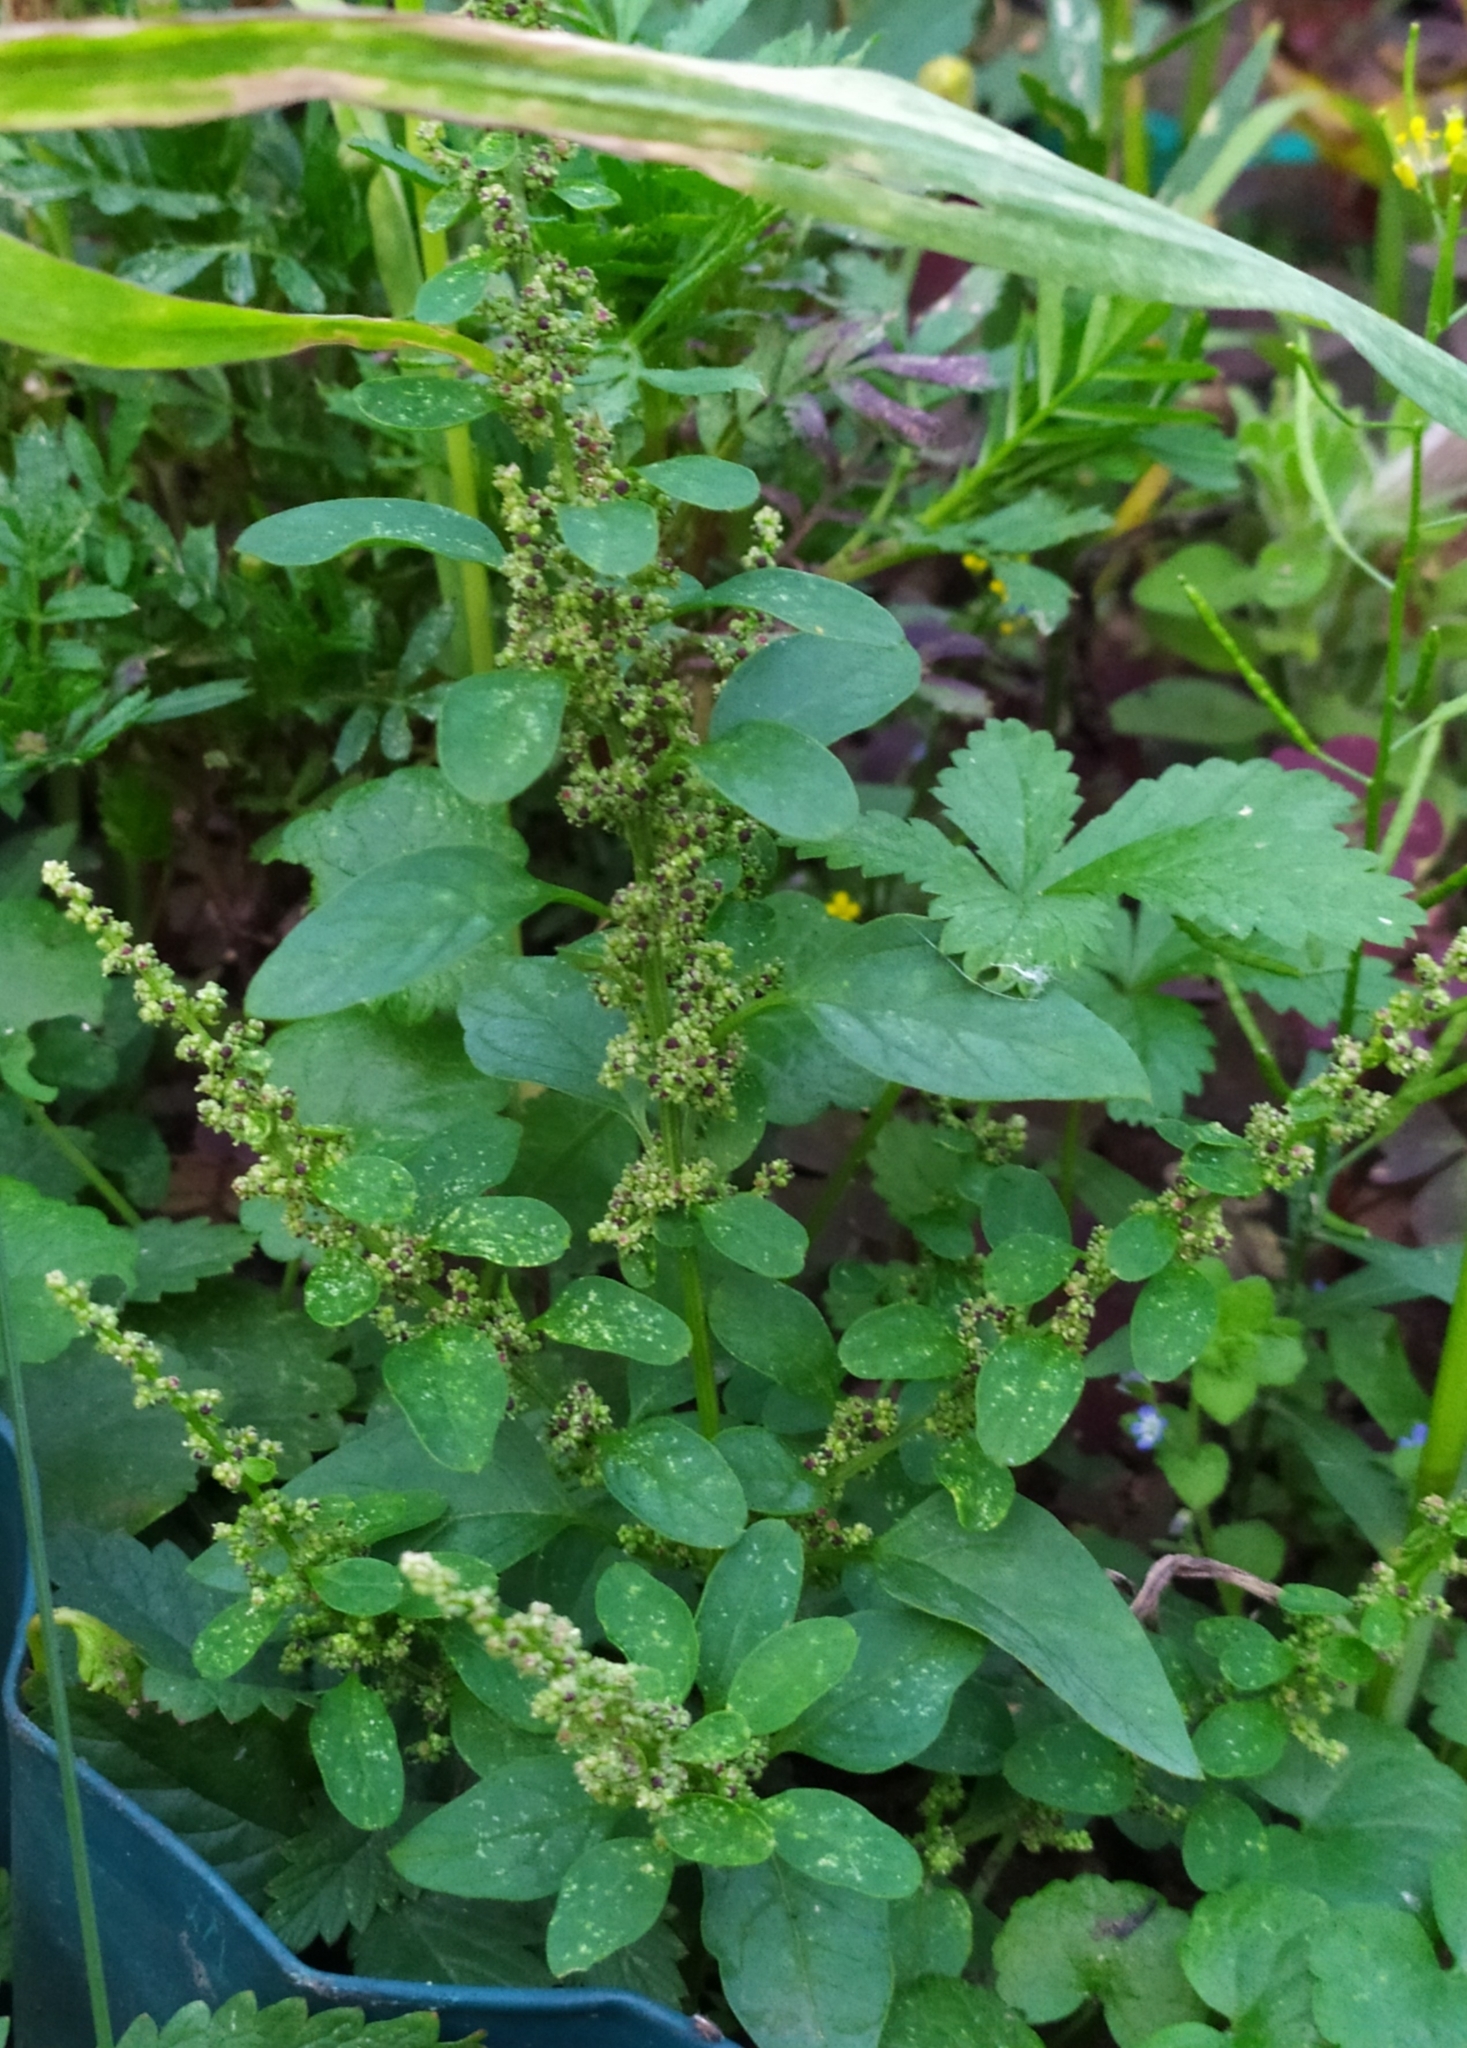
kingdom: Plantae
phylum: Tracheophyta
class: Magnoliopsida
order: Caryophyllales
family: Amaranthaceae
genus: Lipandra
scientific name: Lipandra polysperma
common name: Many-seed goosefoot
